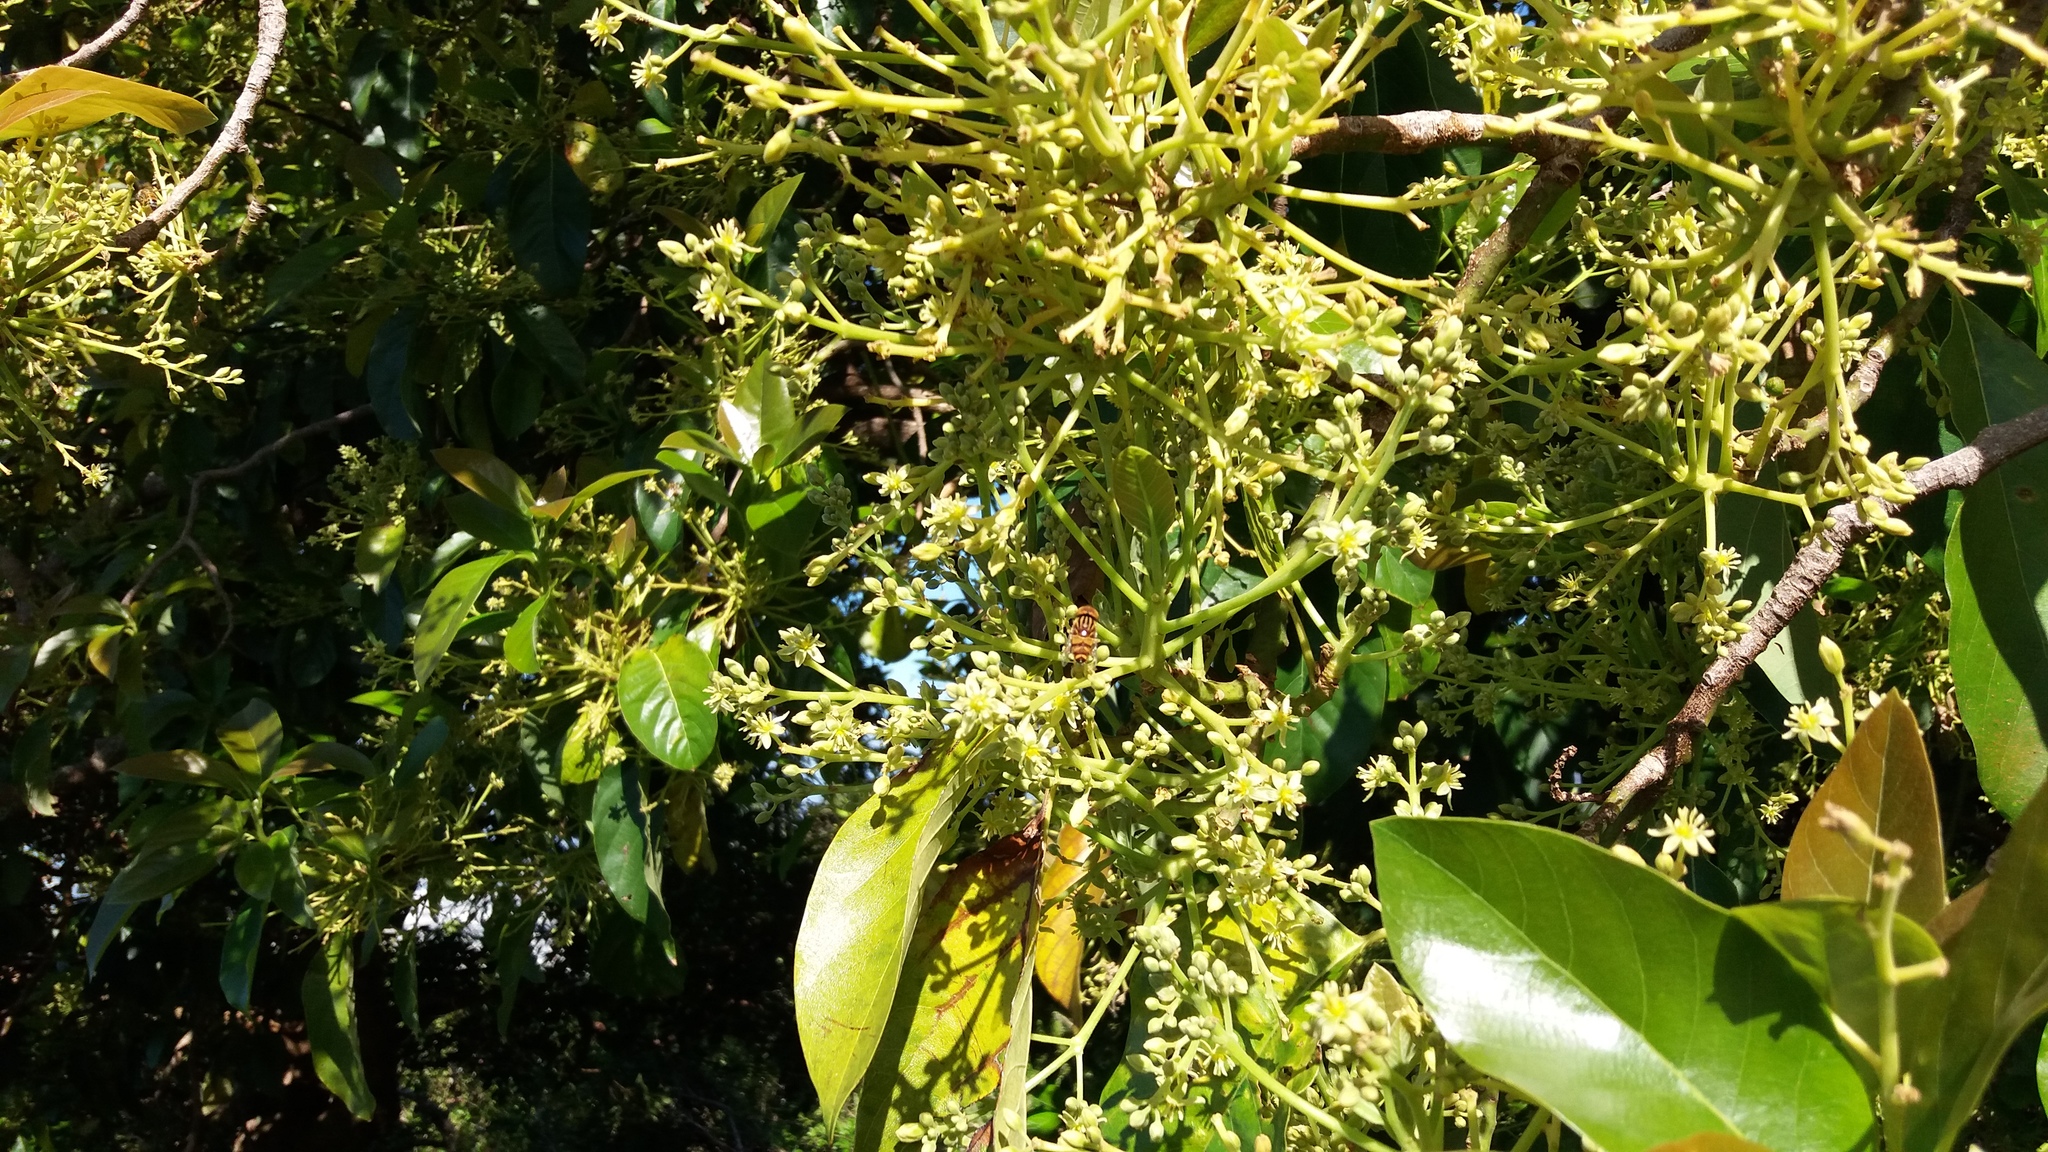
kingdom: Animalia
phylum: Arthropoda
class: Insecta
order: Diptera
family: Syrphidae
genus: Eristalinus
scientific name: Eristalinus arvorum
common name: Syrphid fly
